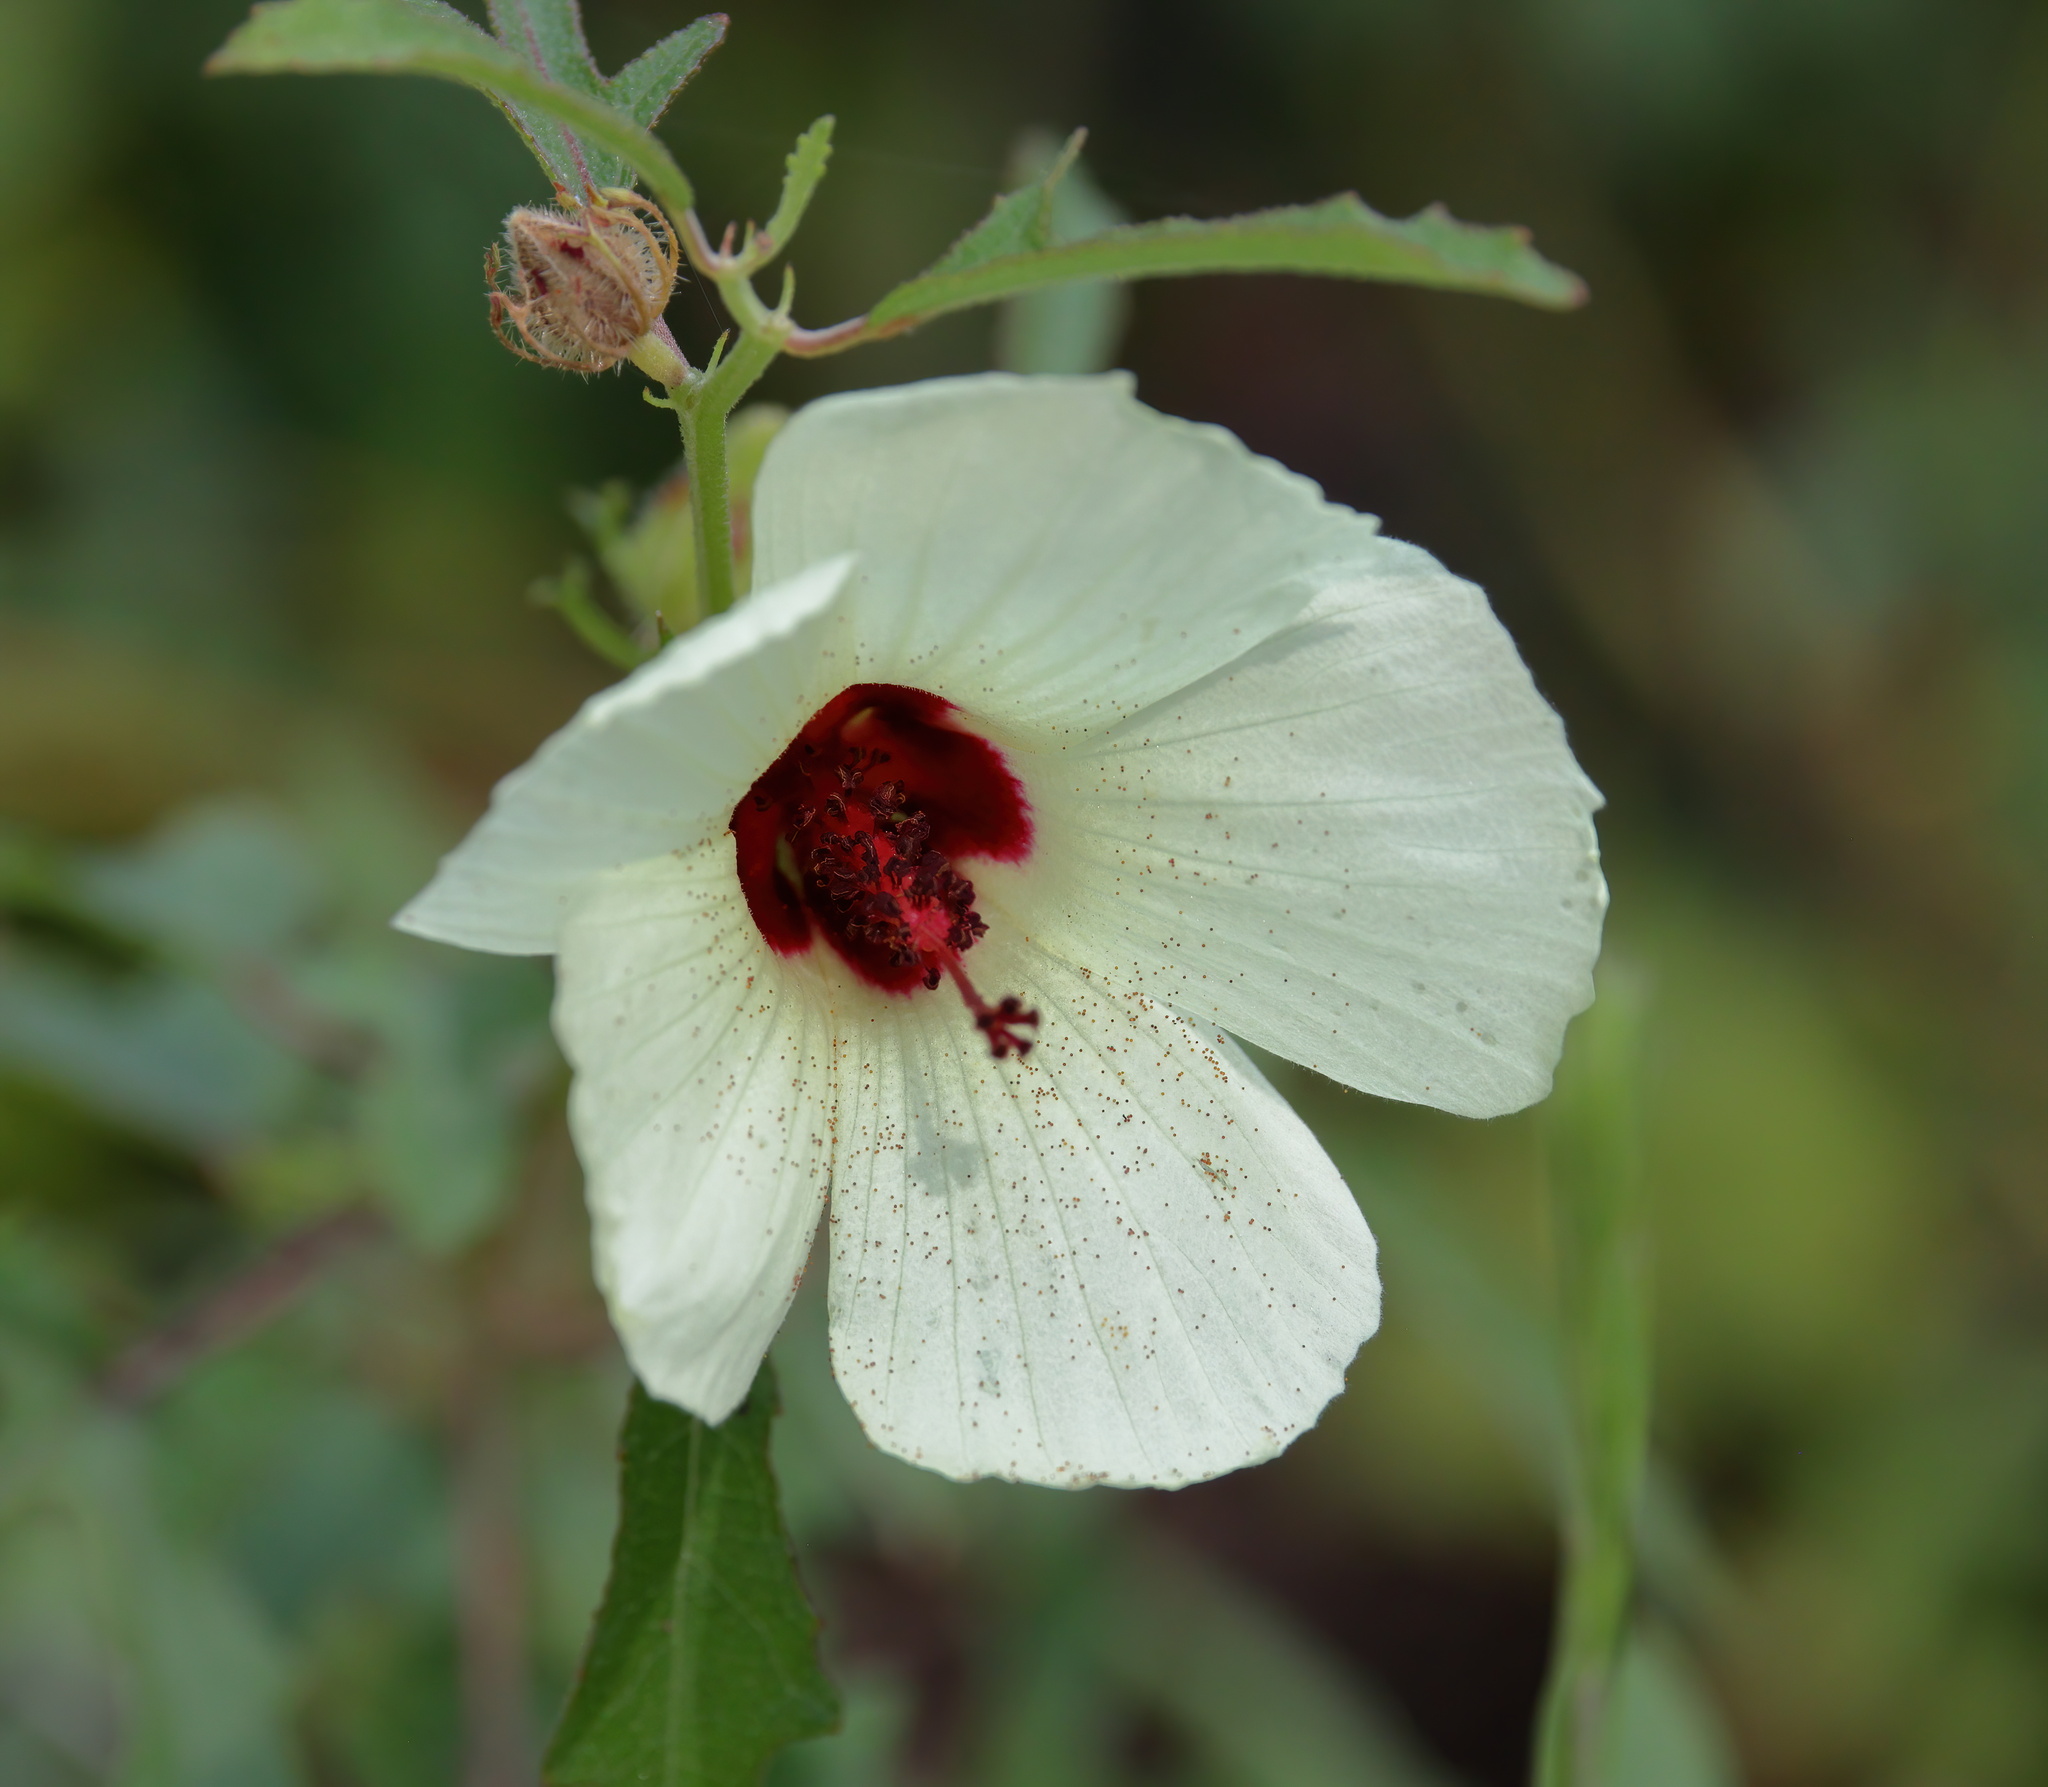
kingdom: Plantae
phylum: Tracheophyta
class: Magnoliopsida
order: Malvales
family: Malvaceae
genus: Hibiscus
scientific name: Hibiscus aculeatus
